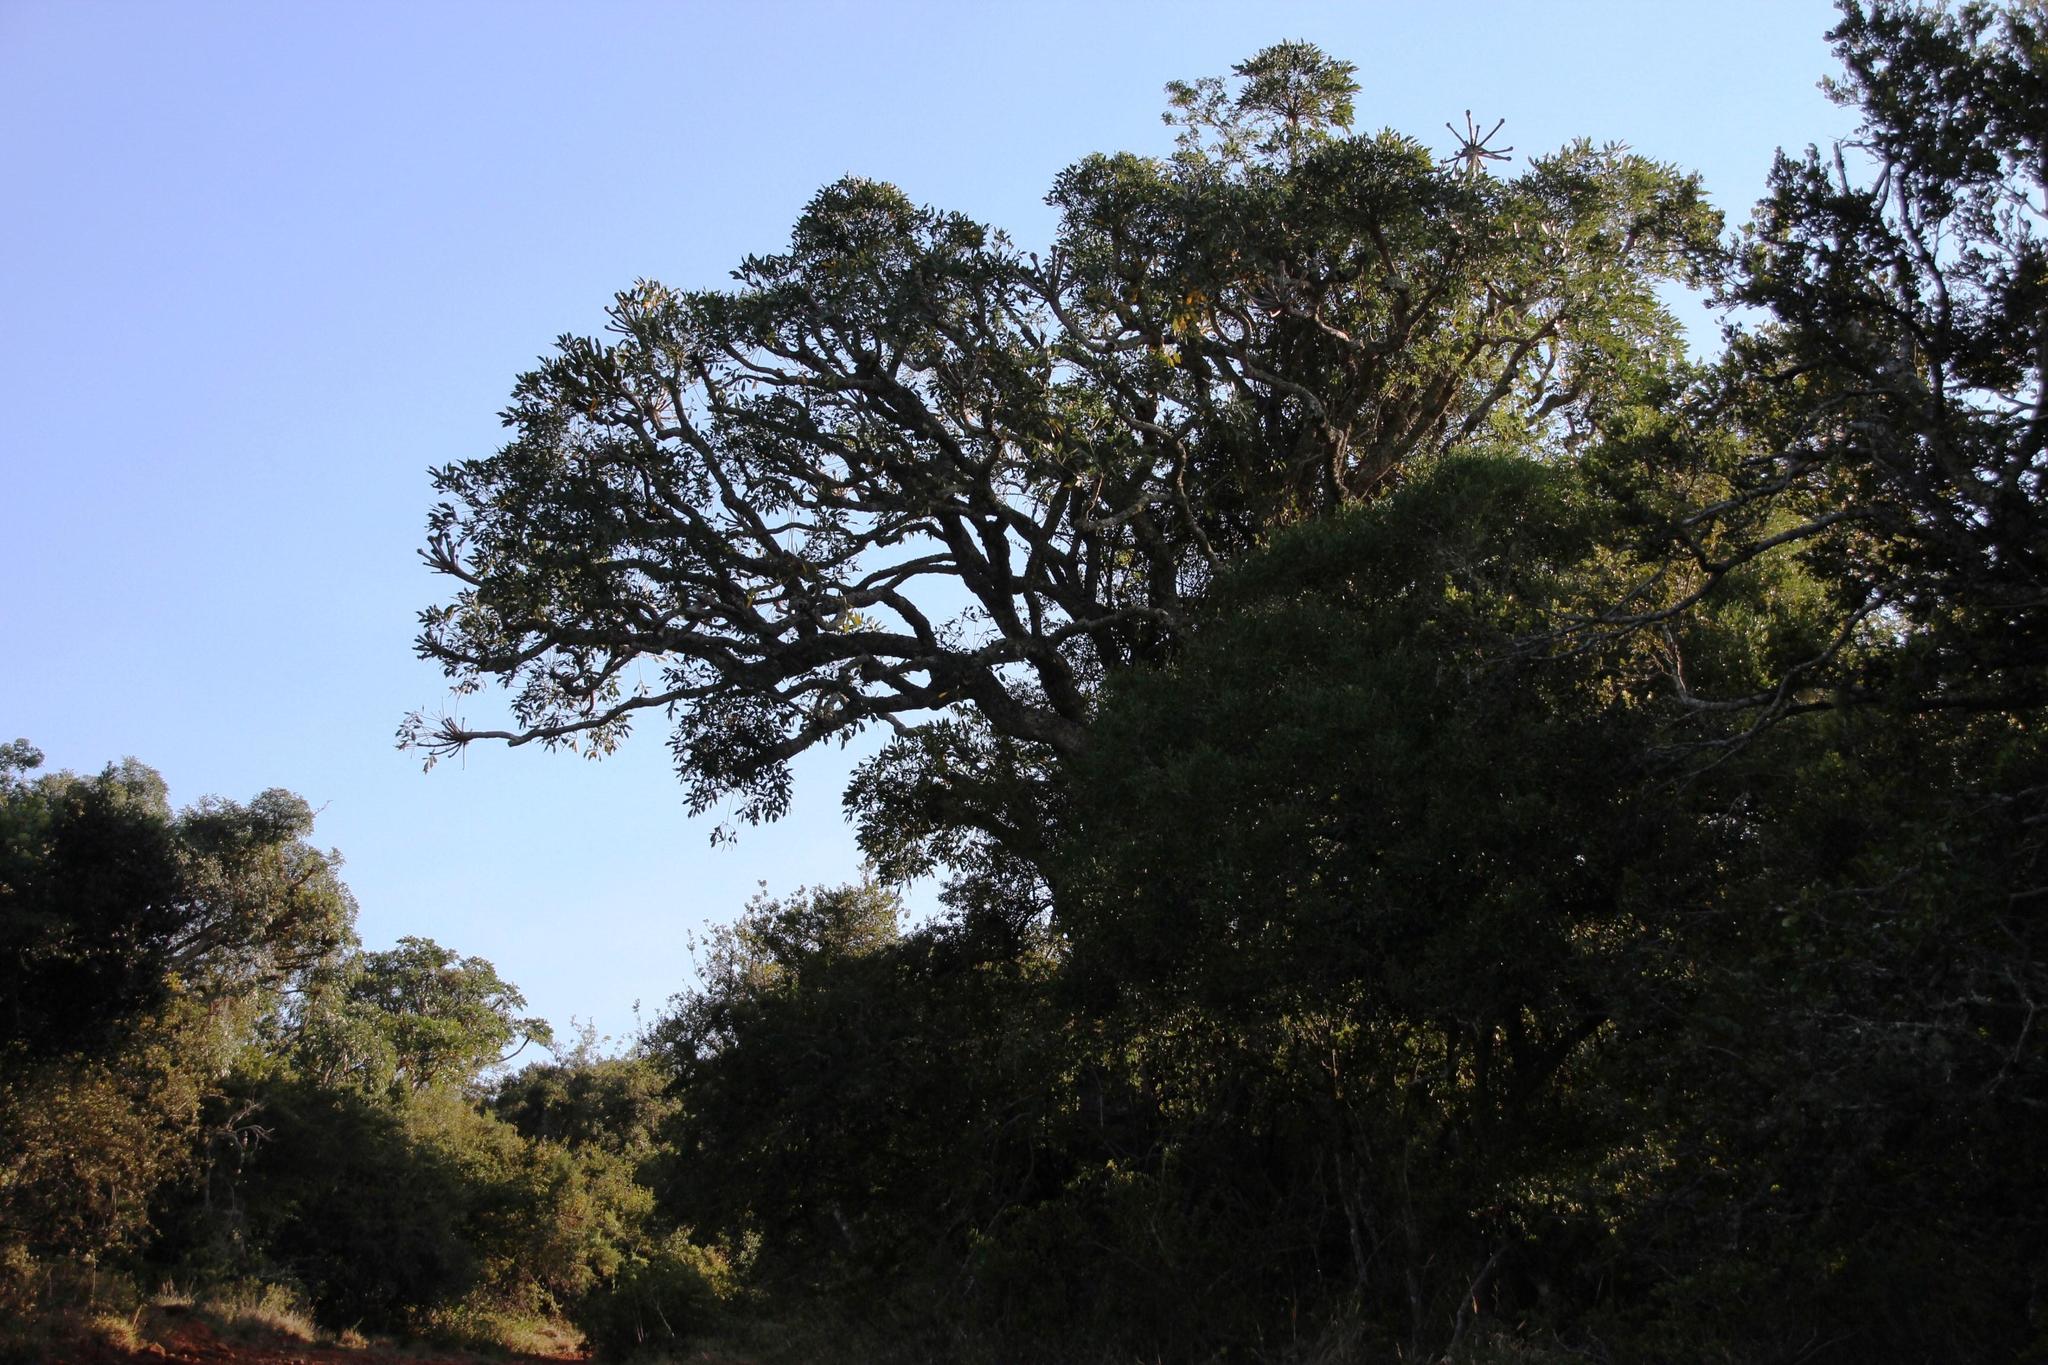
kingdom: Plantae
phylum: Tracheophyta
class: Magnoliopsida
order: Apiales
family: Araliaceae
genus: Cussonia
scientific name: Cussonia spicata
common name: Common cabbagetree
